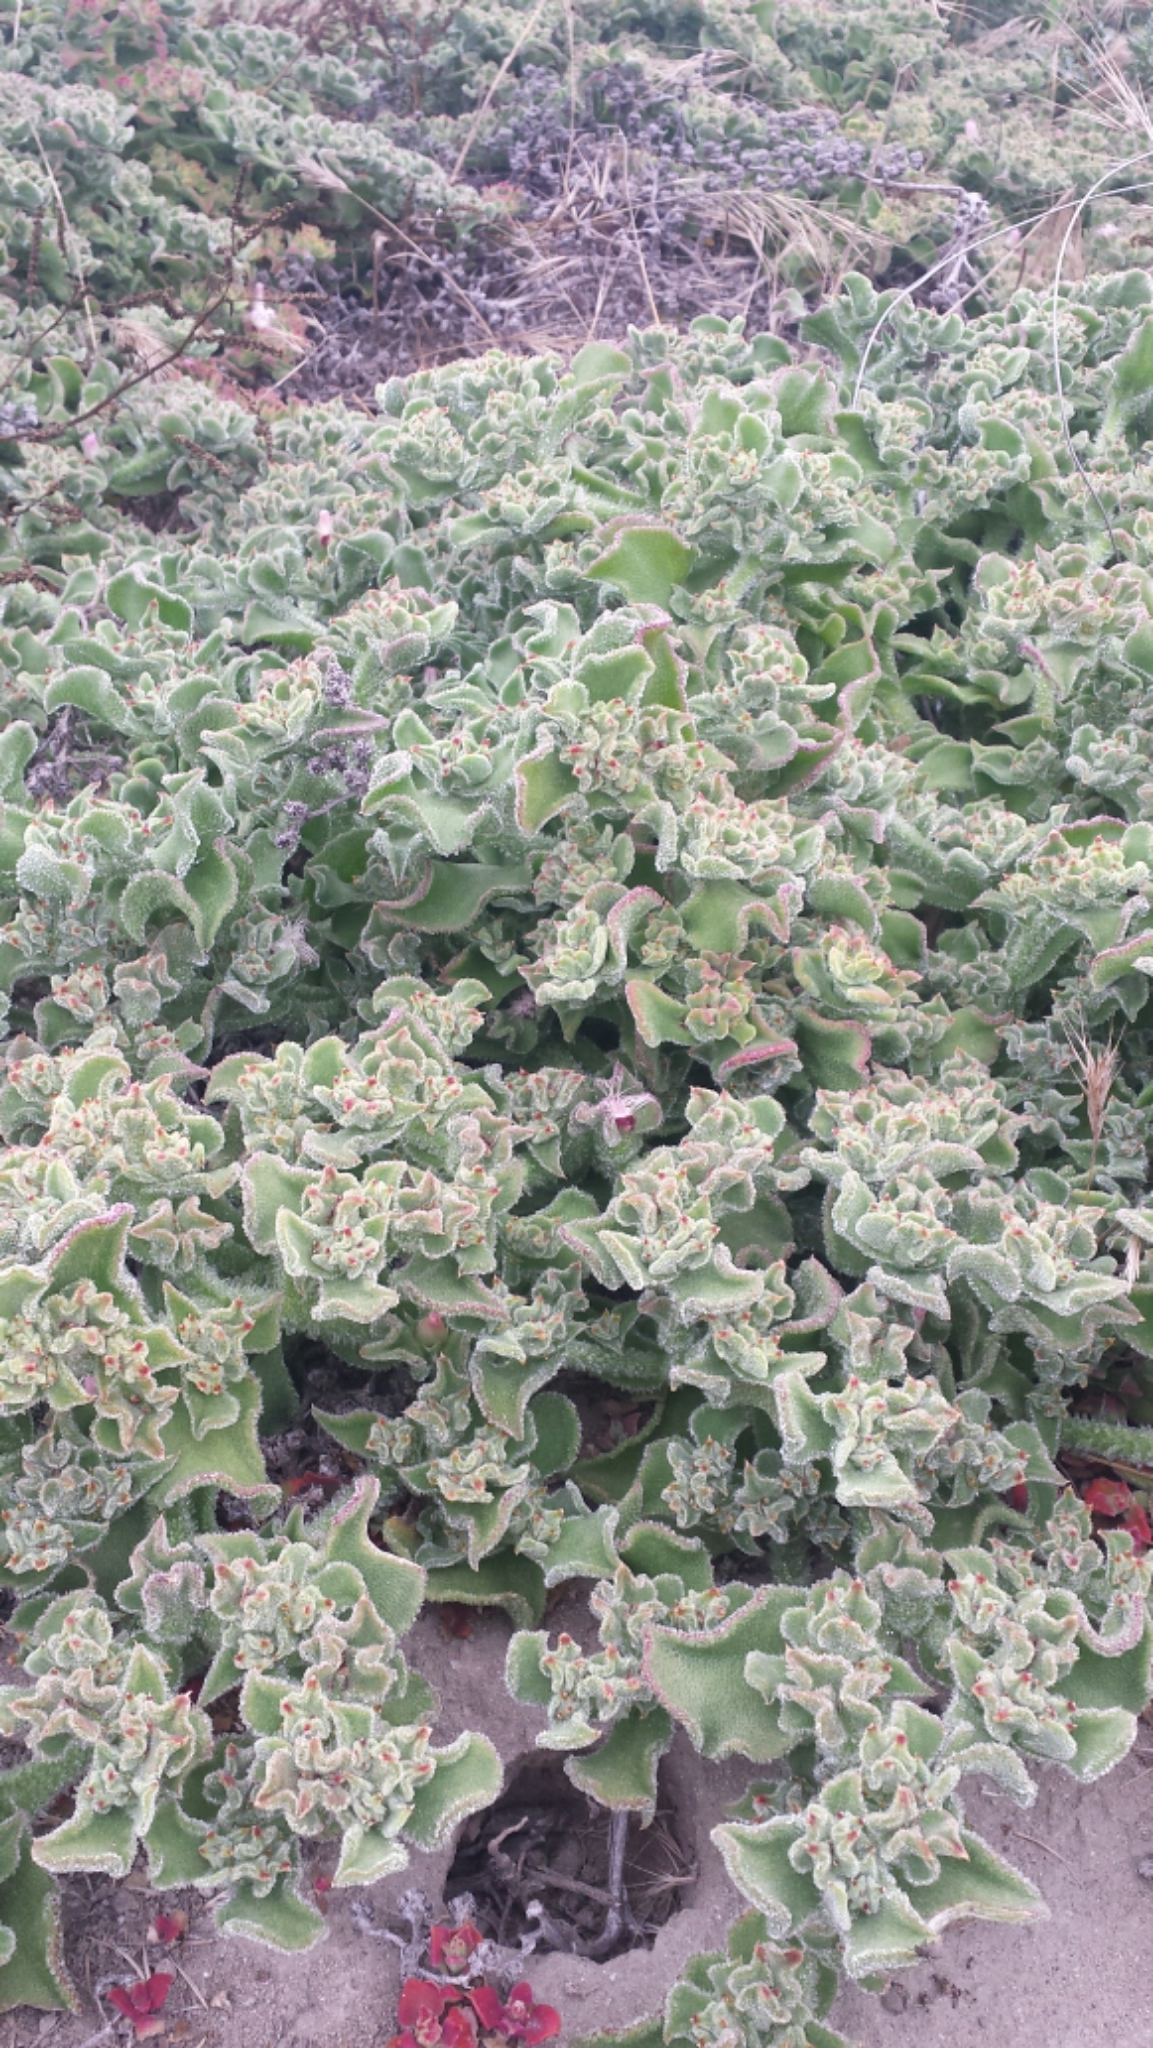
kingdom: Plantae
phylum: Tracheophyta
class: Magnoliopsida
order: Caryophyllales
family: Aizoaceae
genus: Mesembryanthemum
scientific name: Mesembryanthemum crystallinum
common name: Common iceplant
